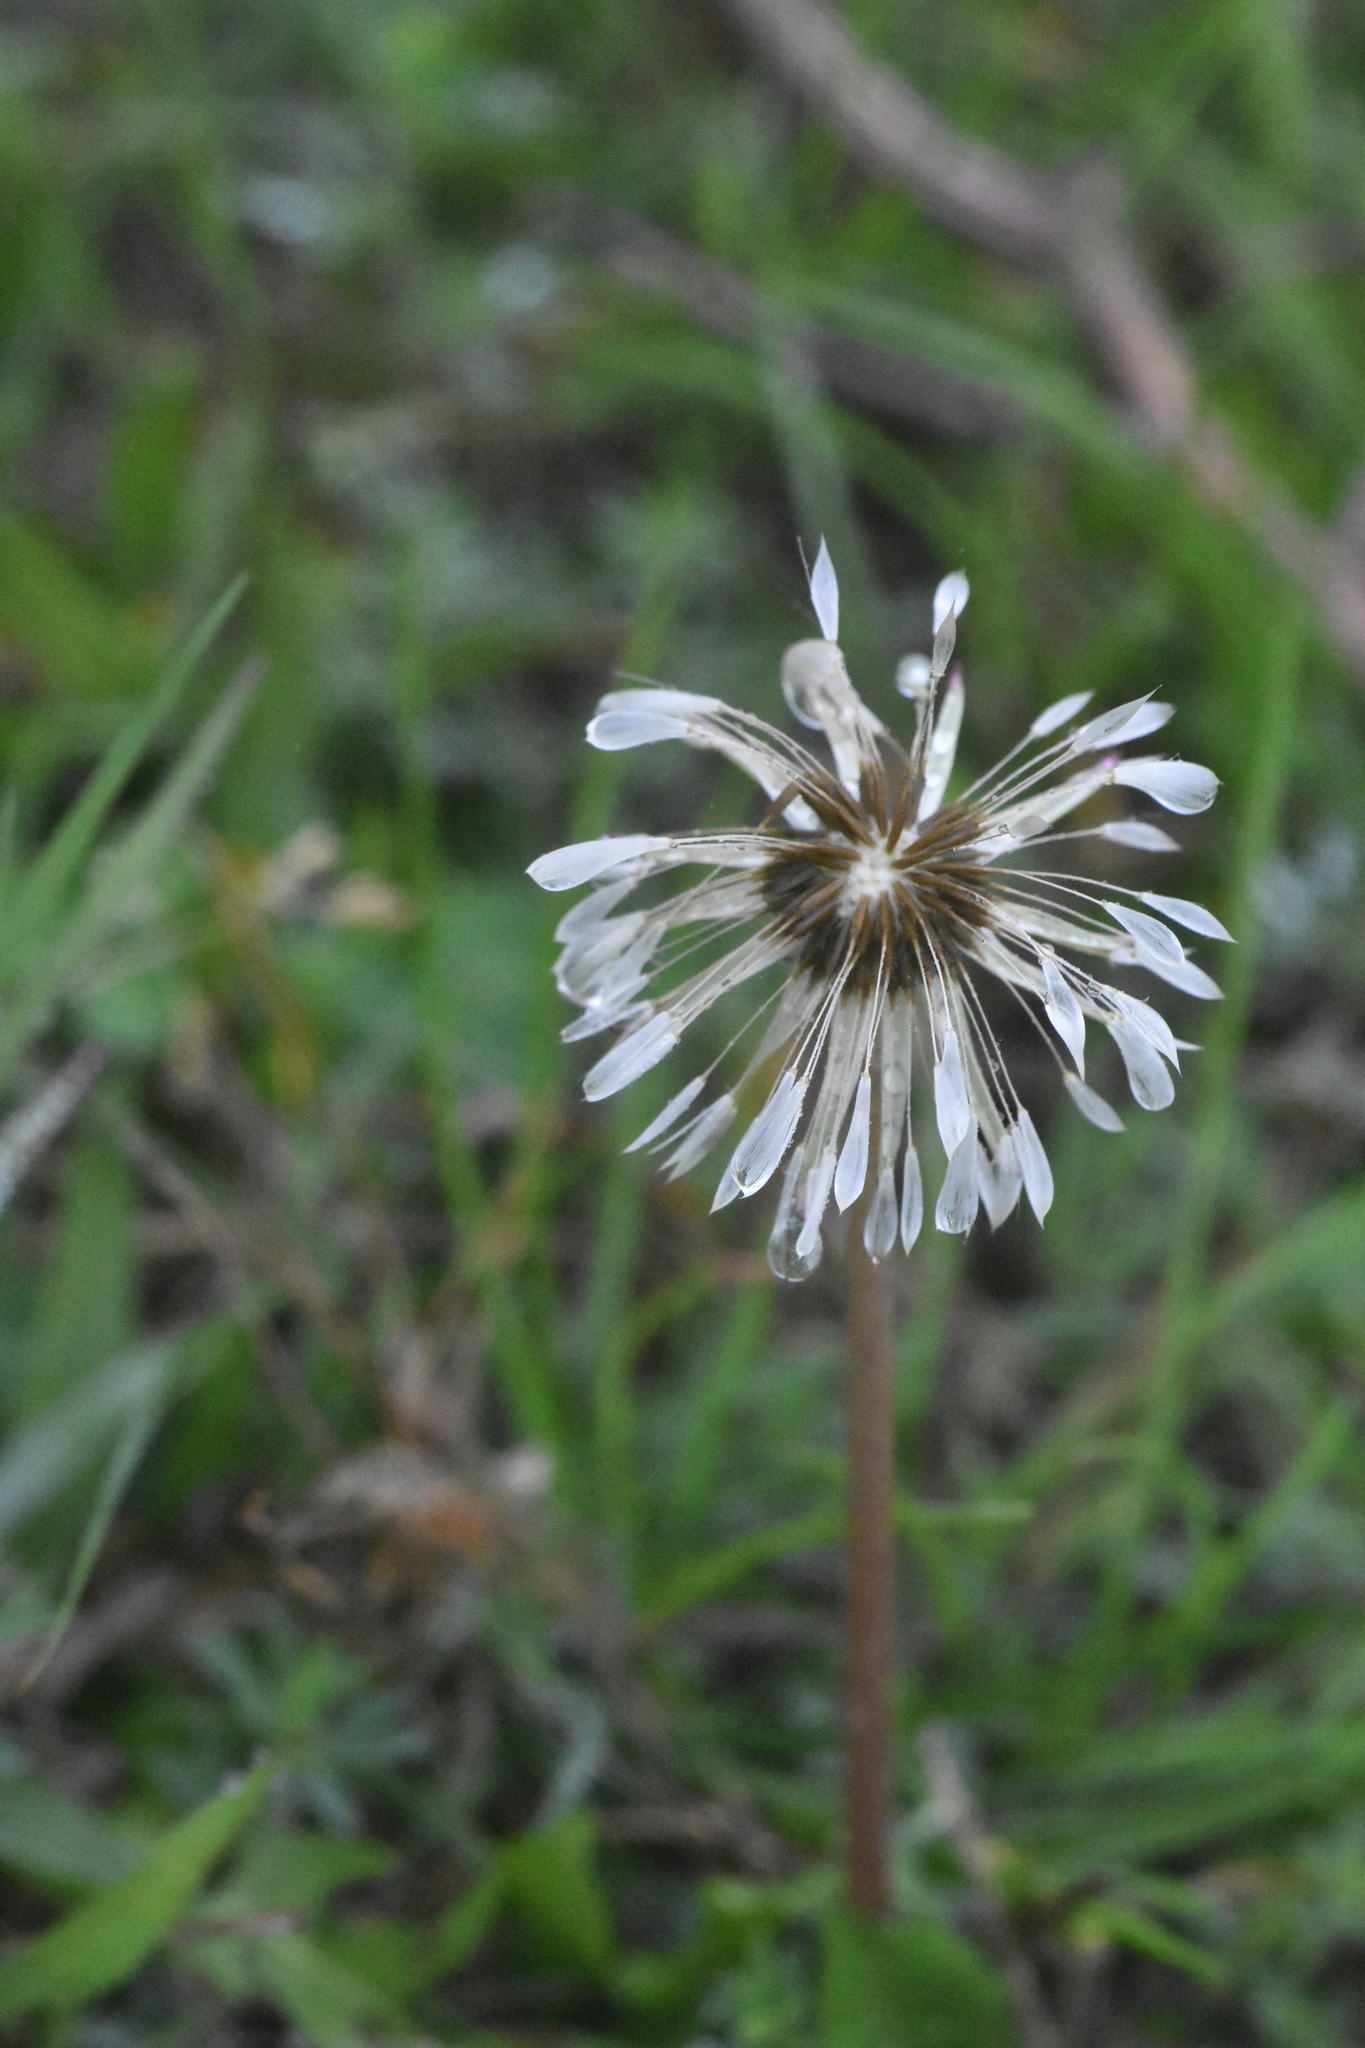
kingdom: Plantae
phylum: Tracheophyta
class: Magnoliopsida
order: Asterales
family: Asteraceae
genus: Taraxacum
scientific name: Taraxacum officinale
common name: Common dandelion
